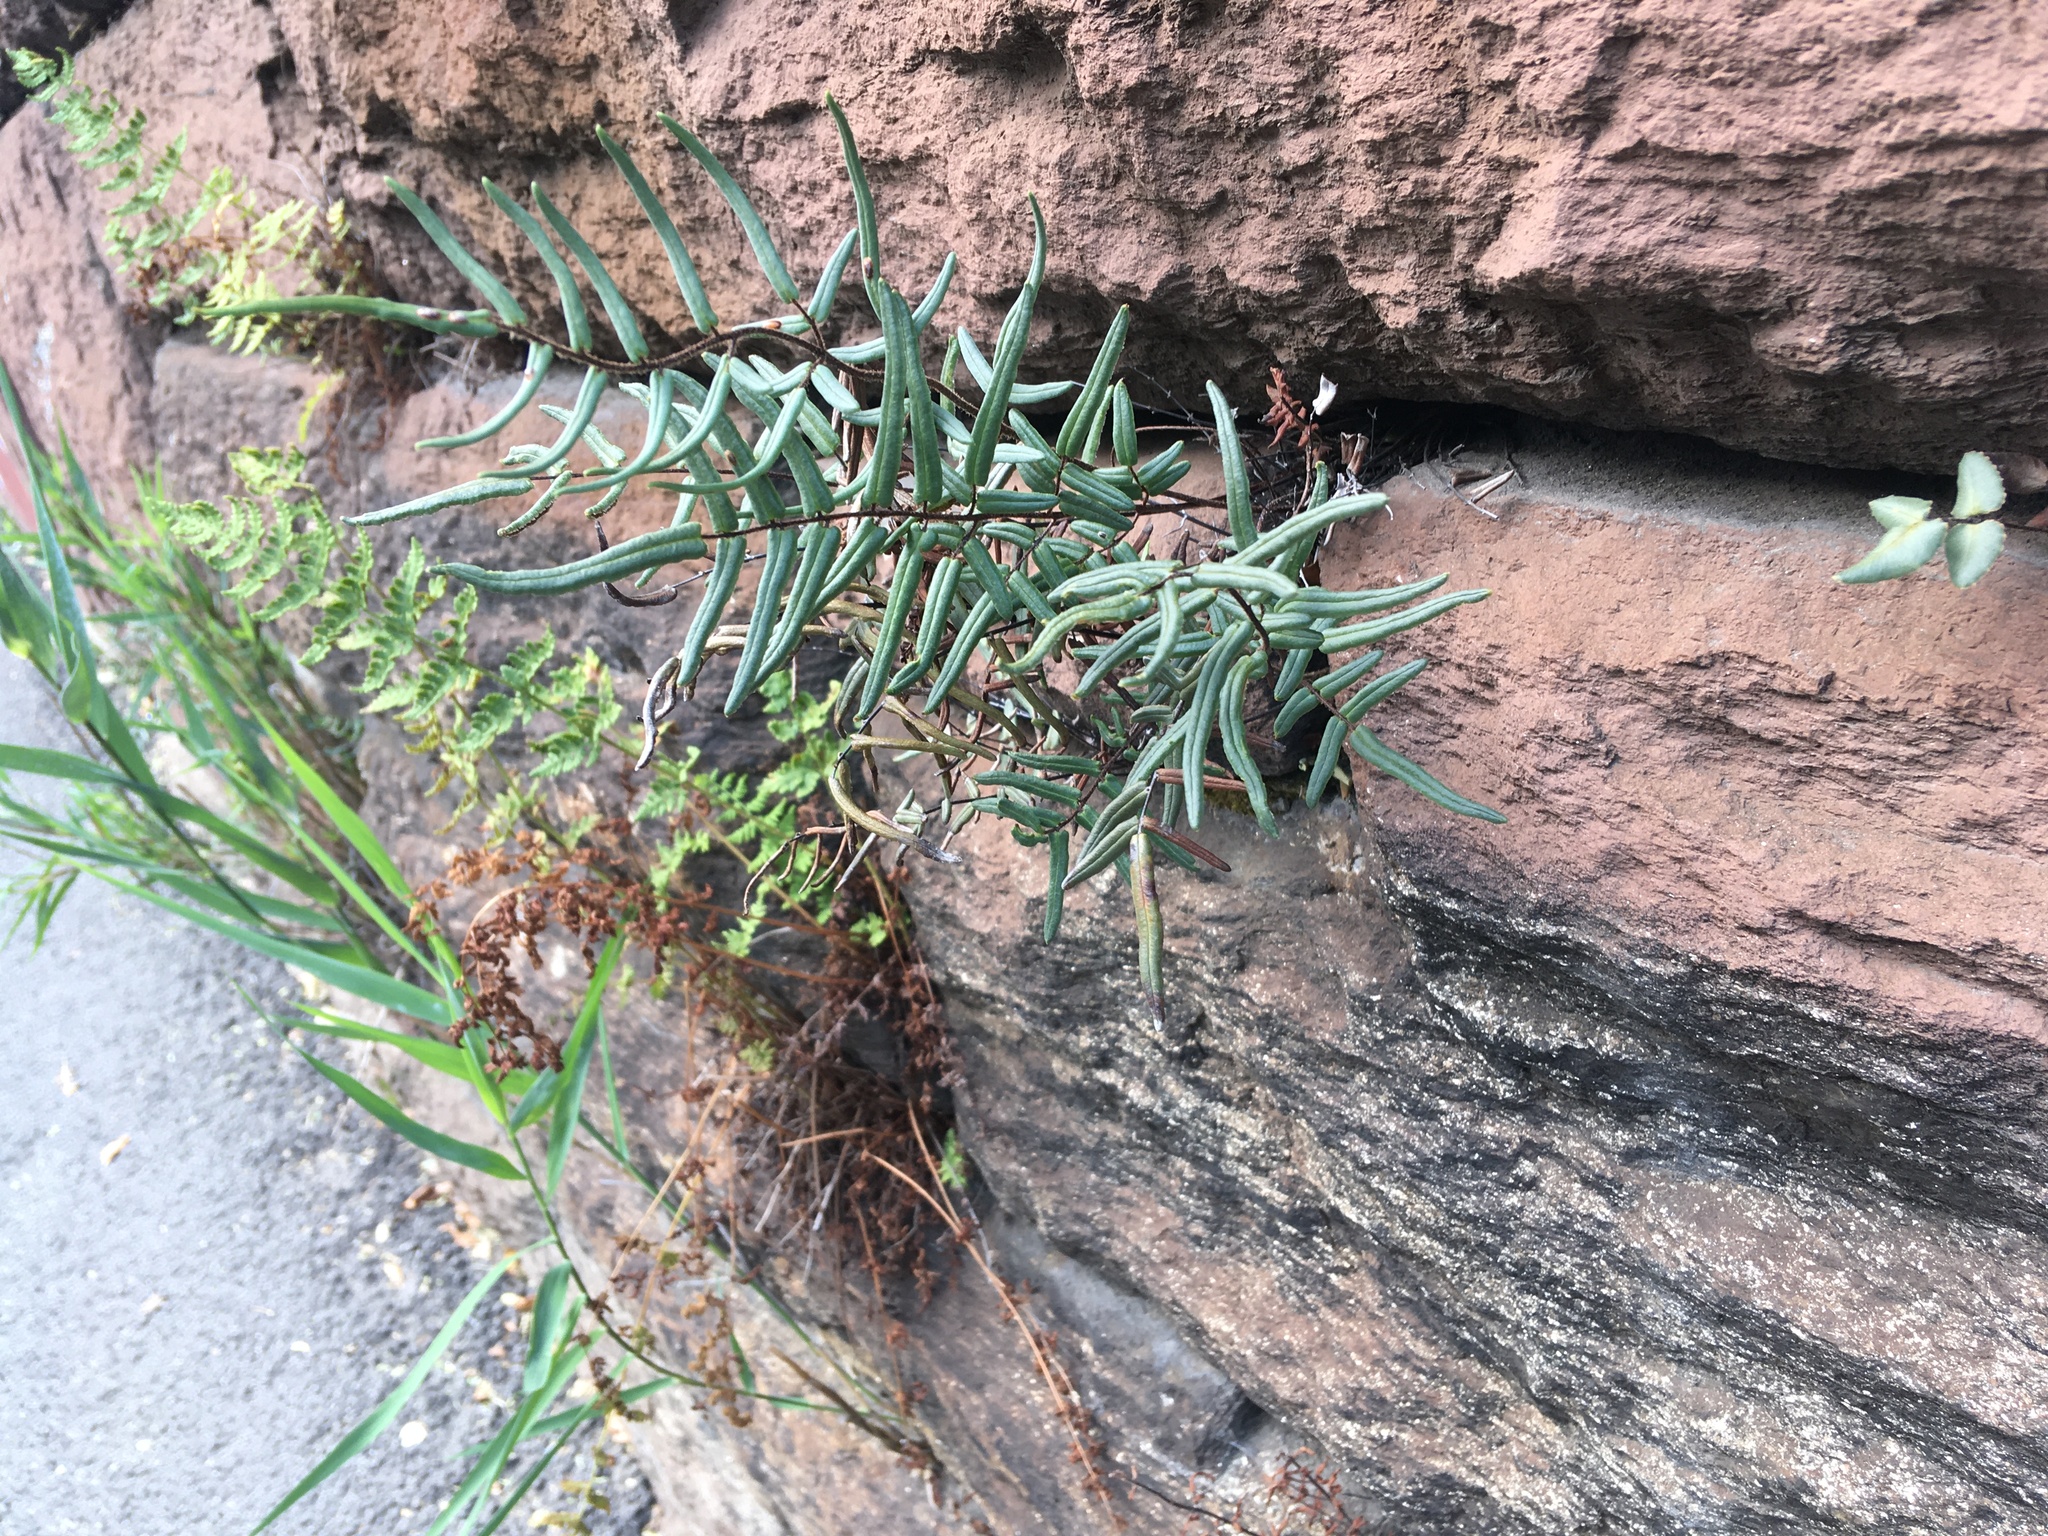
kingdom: Plantae
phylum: Tracheophyta
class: Polypodiopsida
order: Polypodiales
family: Pteridaceae
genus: Pellaea
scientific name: Pellaea atropurpurea
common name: Hairy cliffbrake
